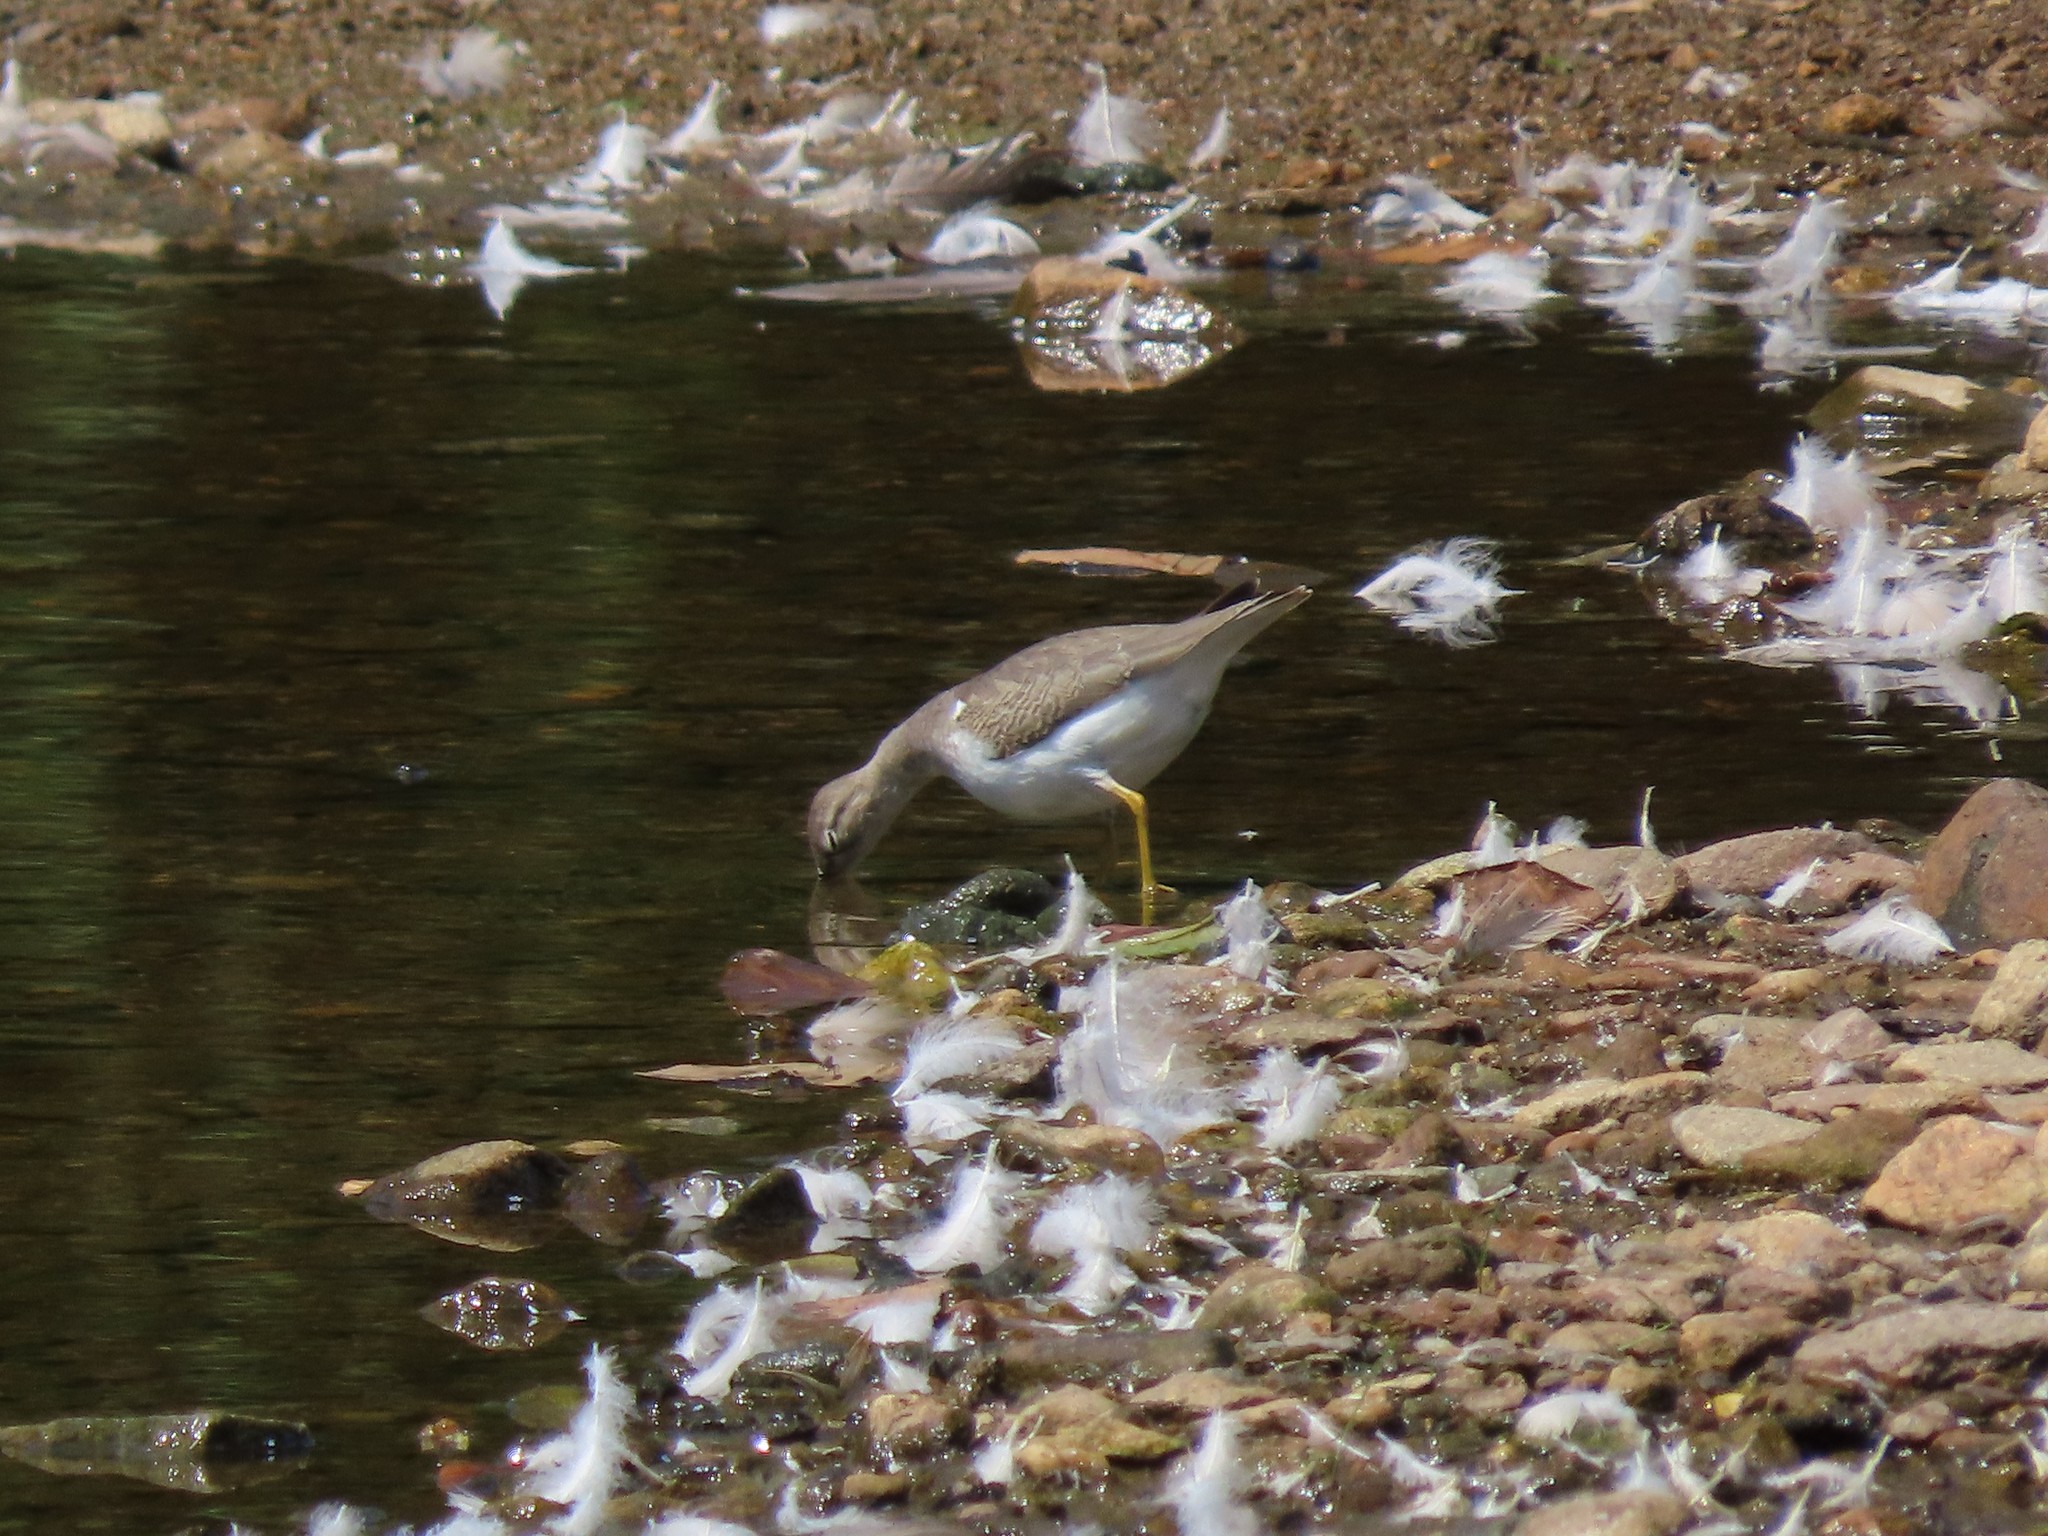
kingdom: Animalia
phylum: Chordata
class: Aves
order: Charadriiformes
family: Scolopacidae
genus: Actitis
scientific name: Actitis macularius
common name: Spotted sandpiper
